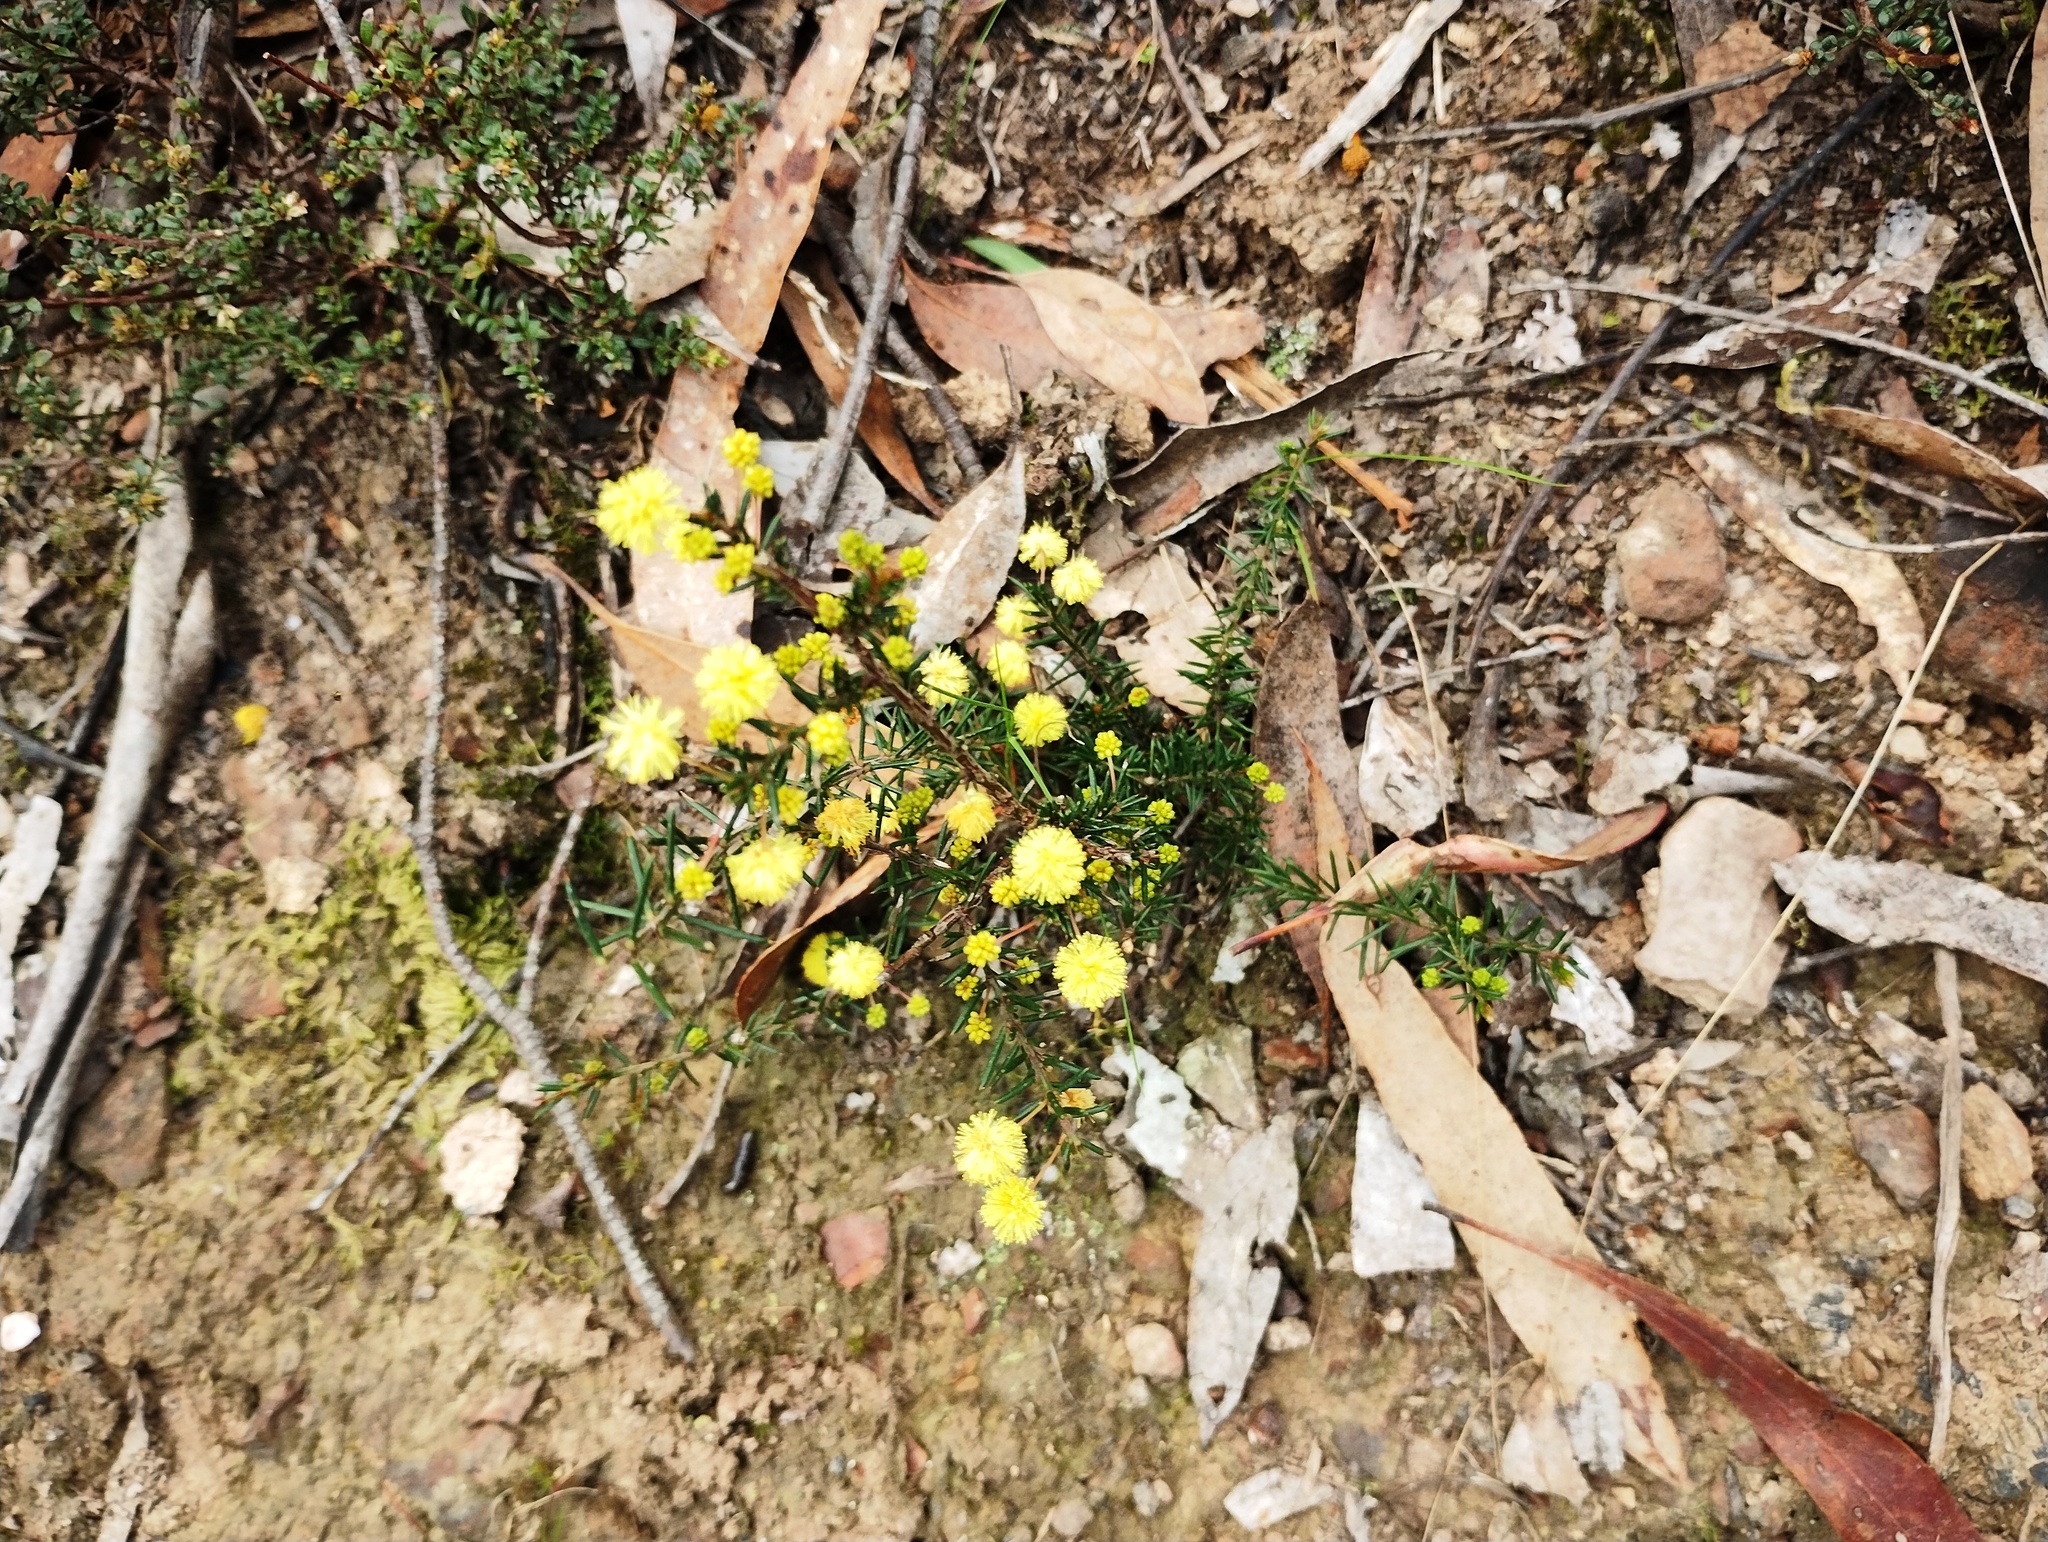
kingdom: Plantae
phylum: Tracheophyta
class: Magnoliopsida
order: Fabales
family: Fabaceae
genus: Acacia
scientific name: Acacia aculeatissima
